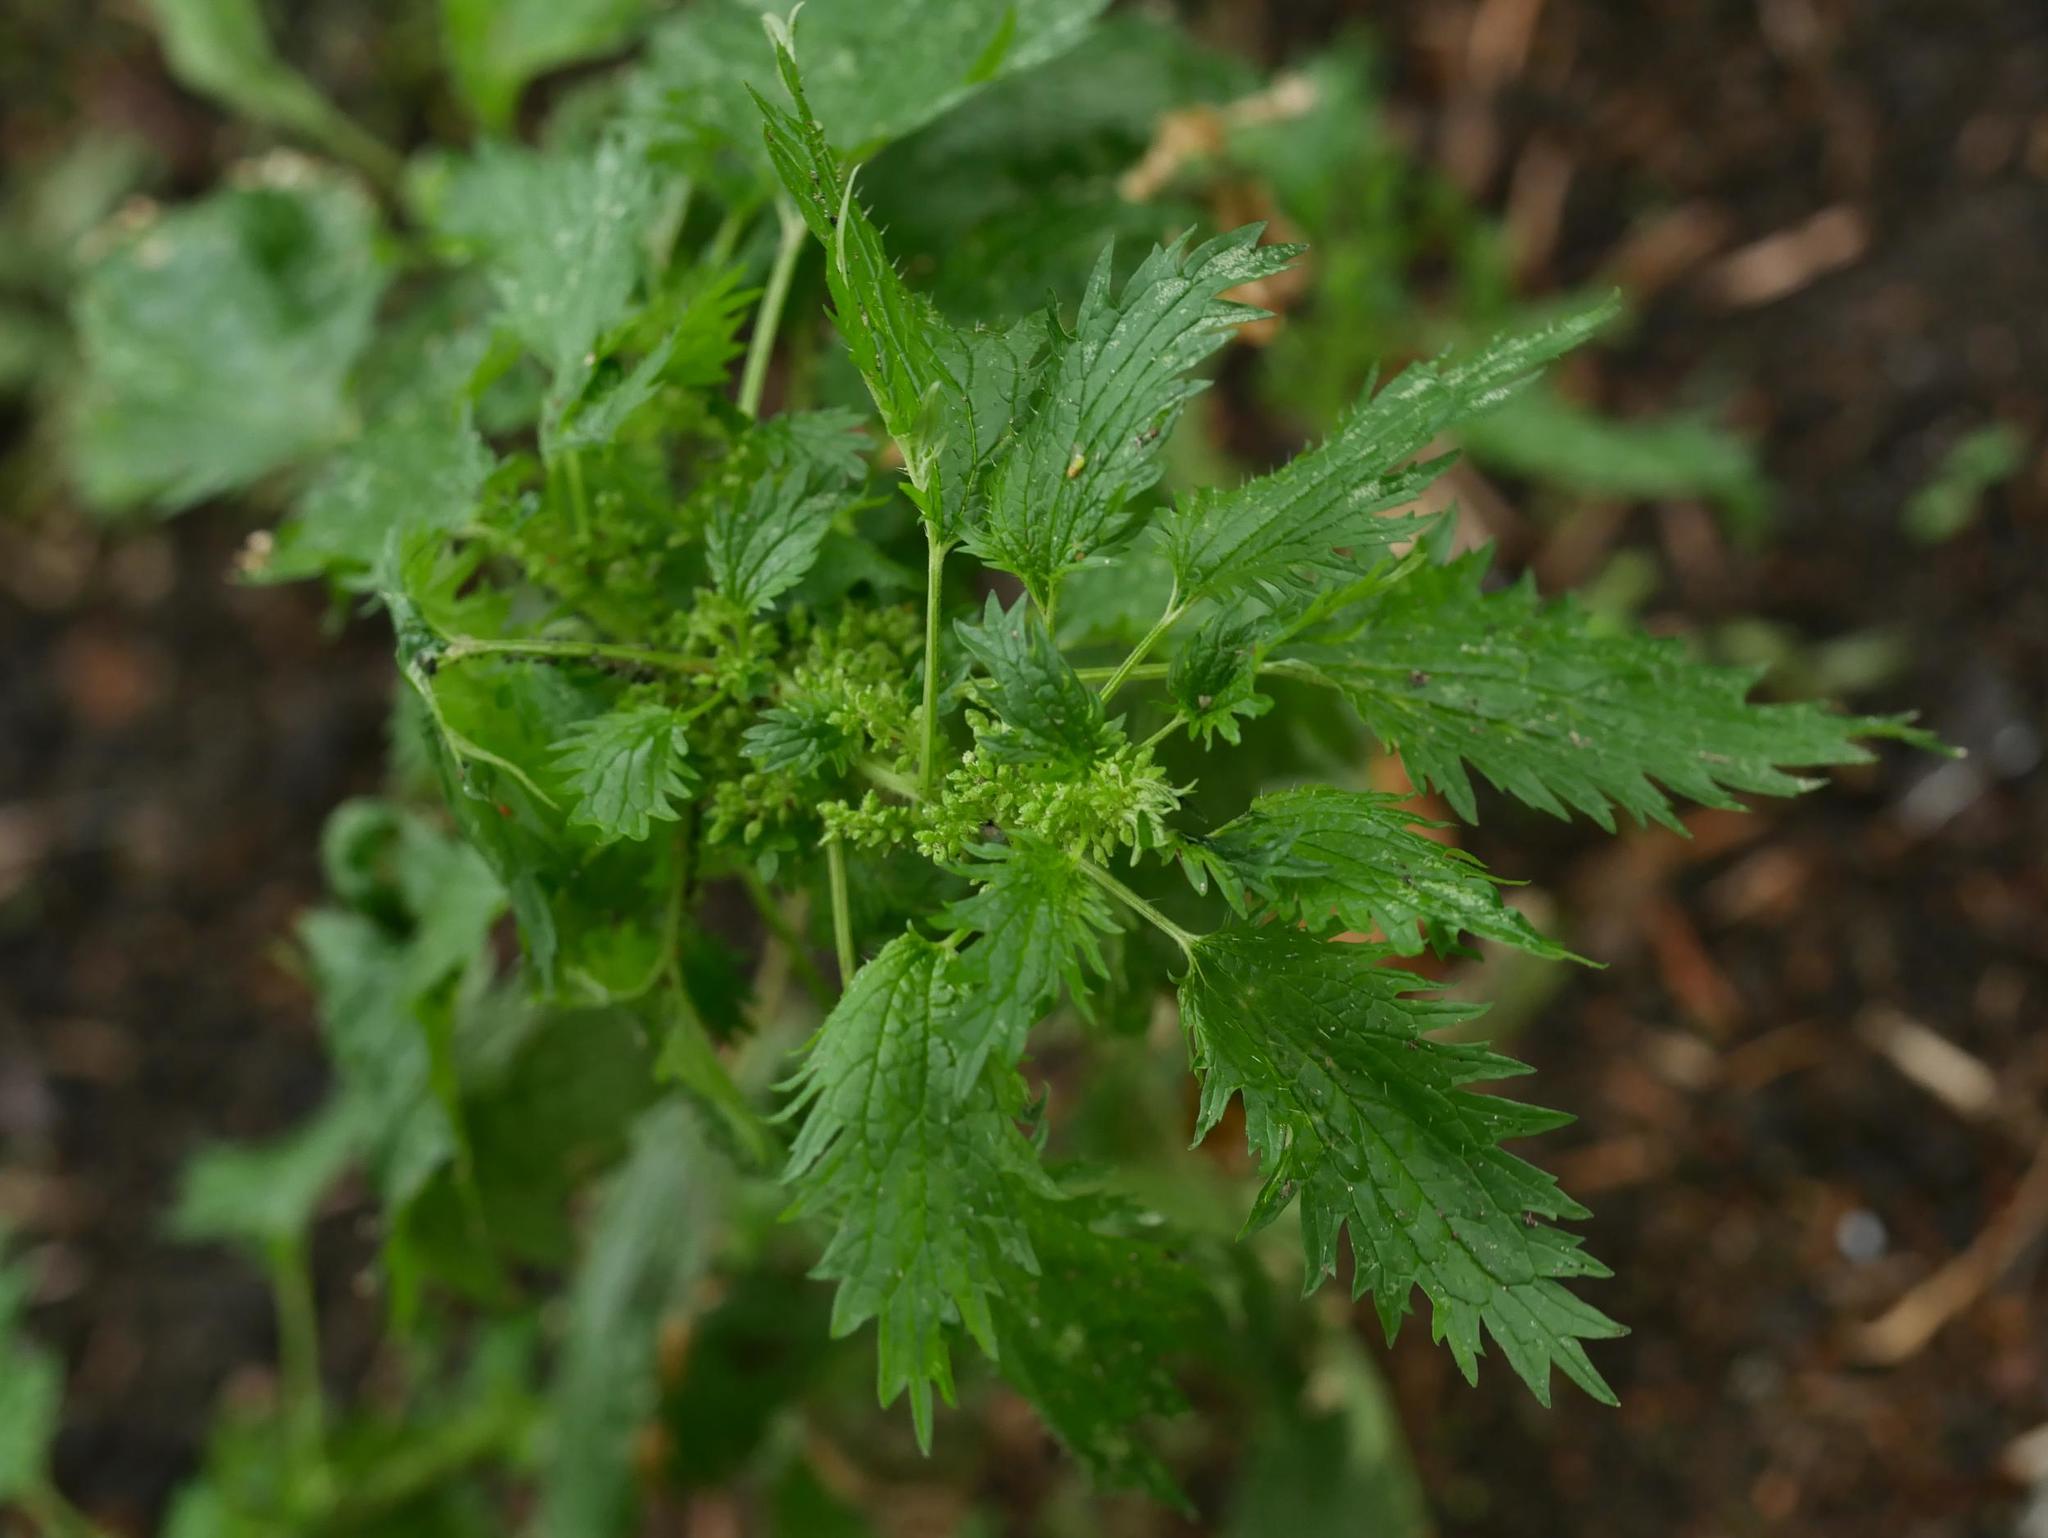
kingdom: Plantae
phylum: Tracheophyta
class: Magnoliopsida
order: Rosales
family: Urticaceae
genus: Urtica
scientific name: Urtica urens
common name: Dwarf nettle
